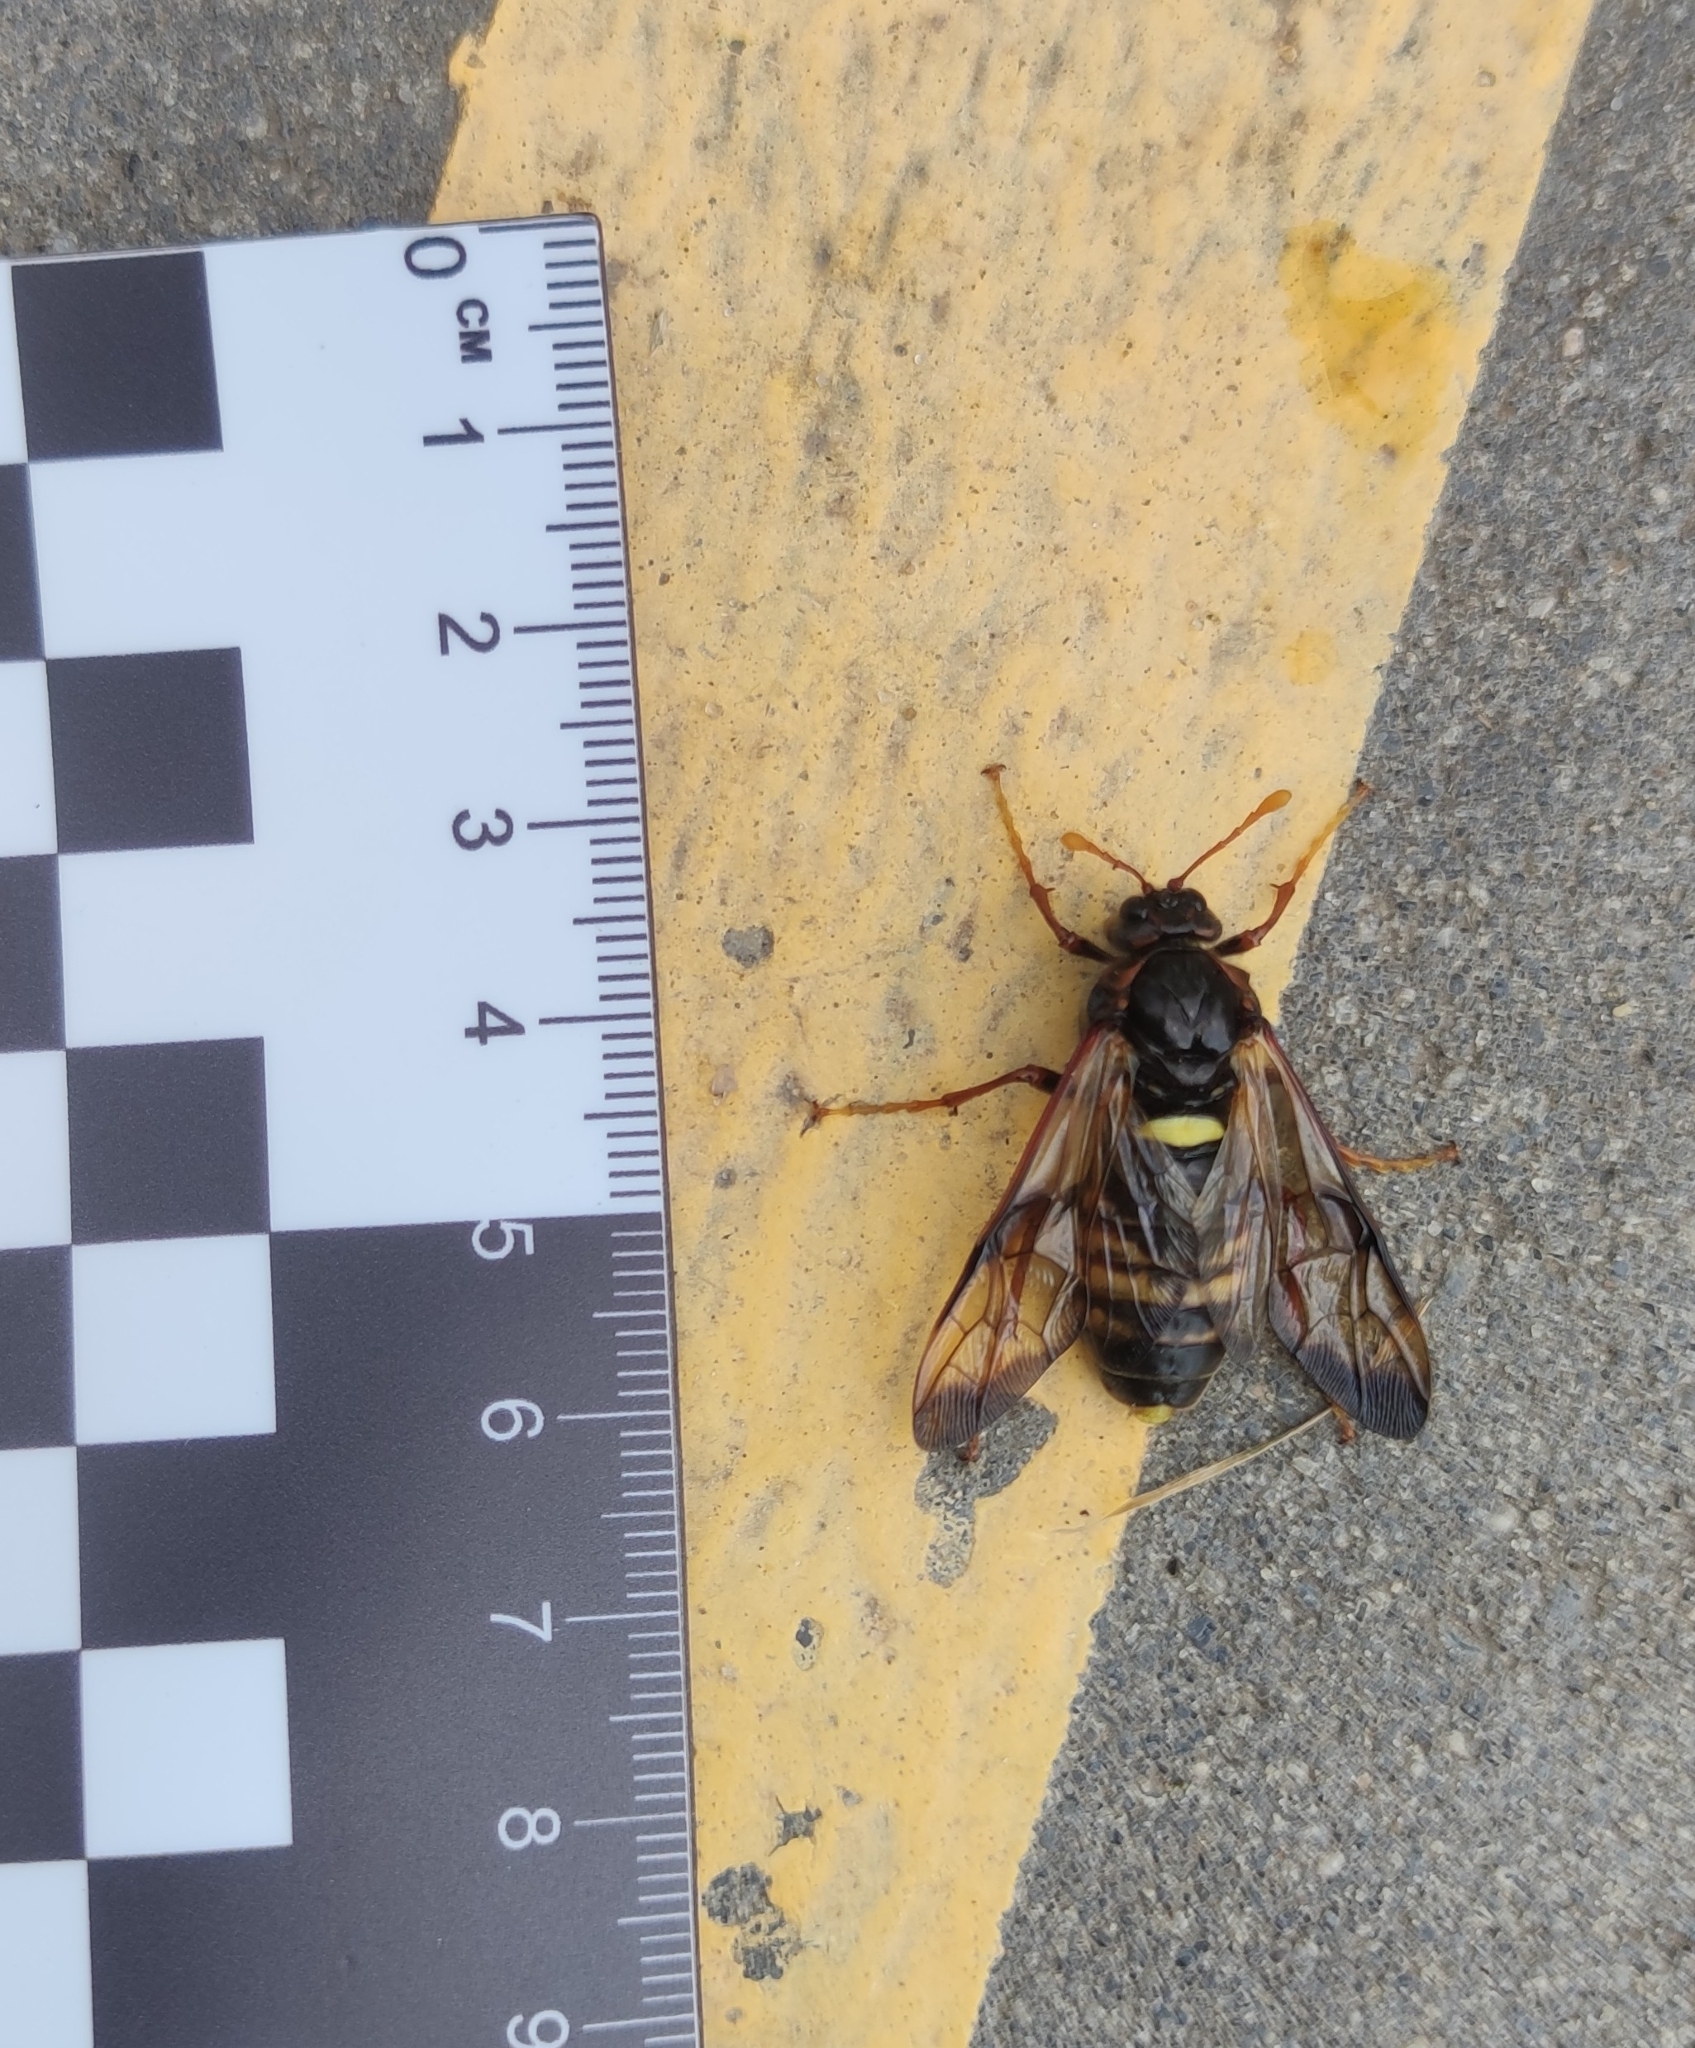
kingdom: Animalia
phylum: Arthropoda
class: Insecta
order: Hymenoptera
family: Cimbicidae
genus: Cimbex
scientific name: Cimbex femoratus
